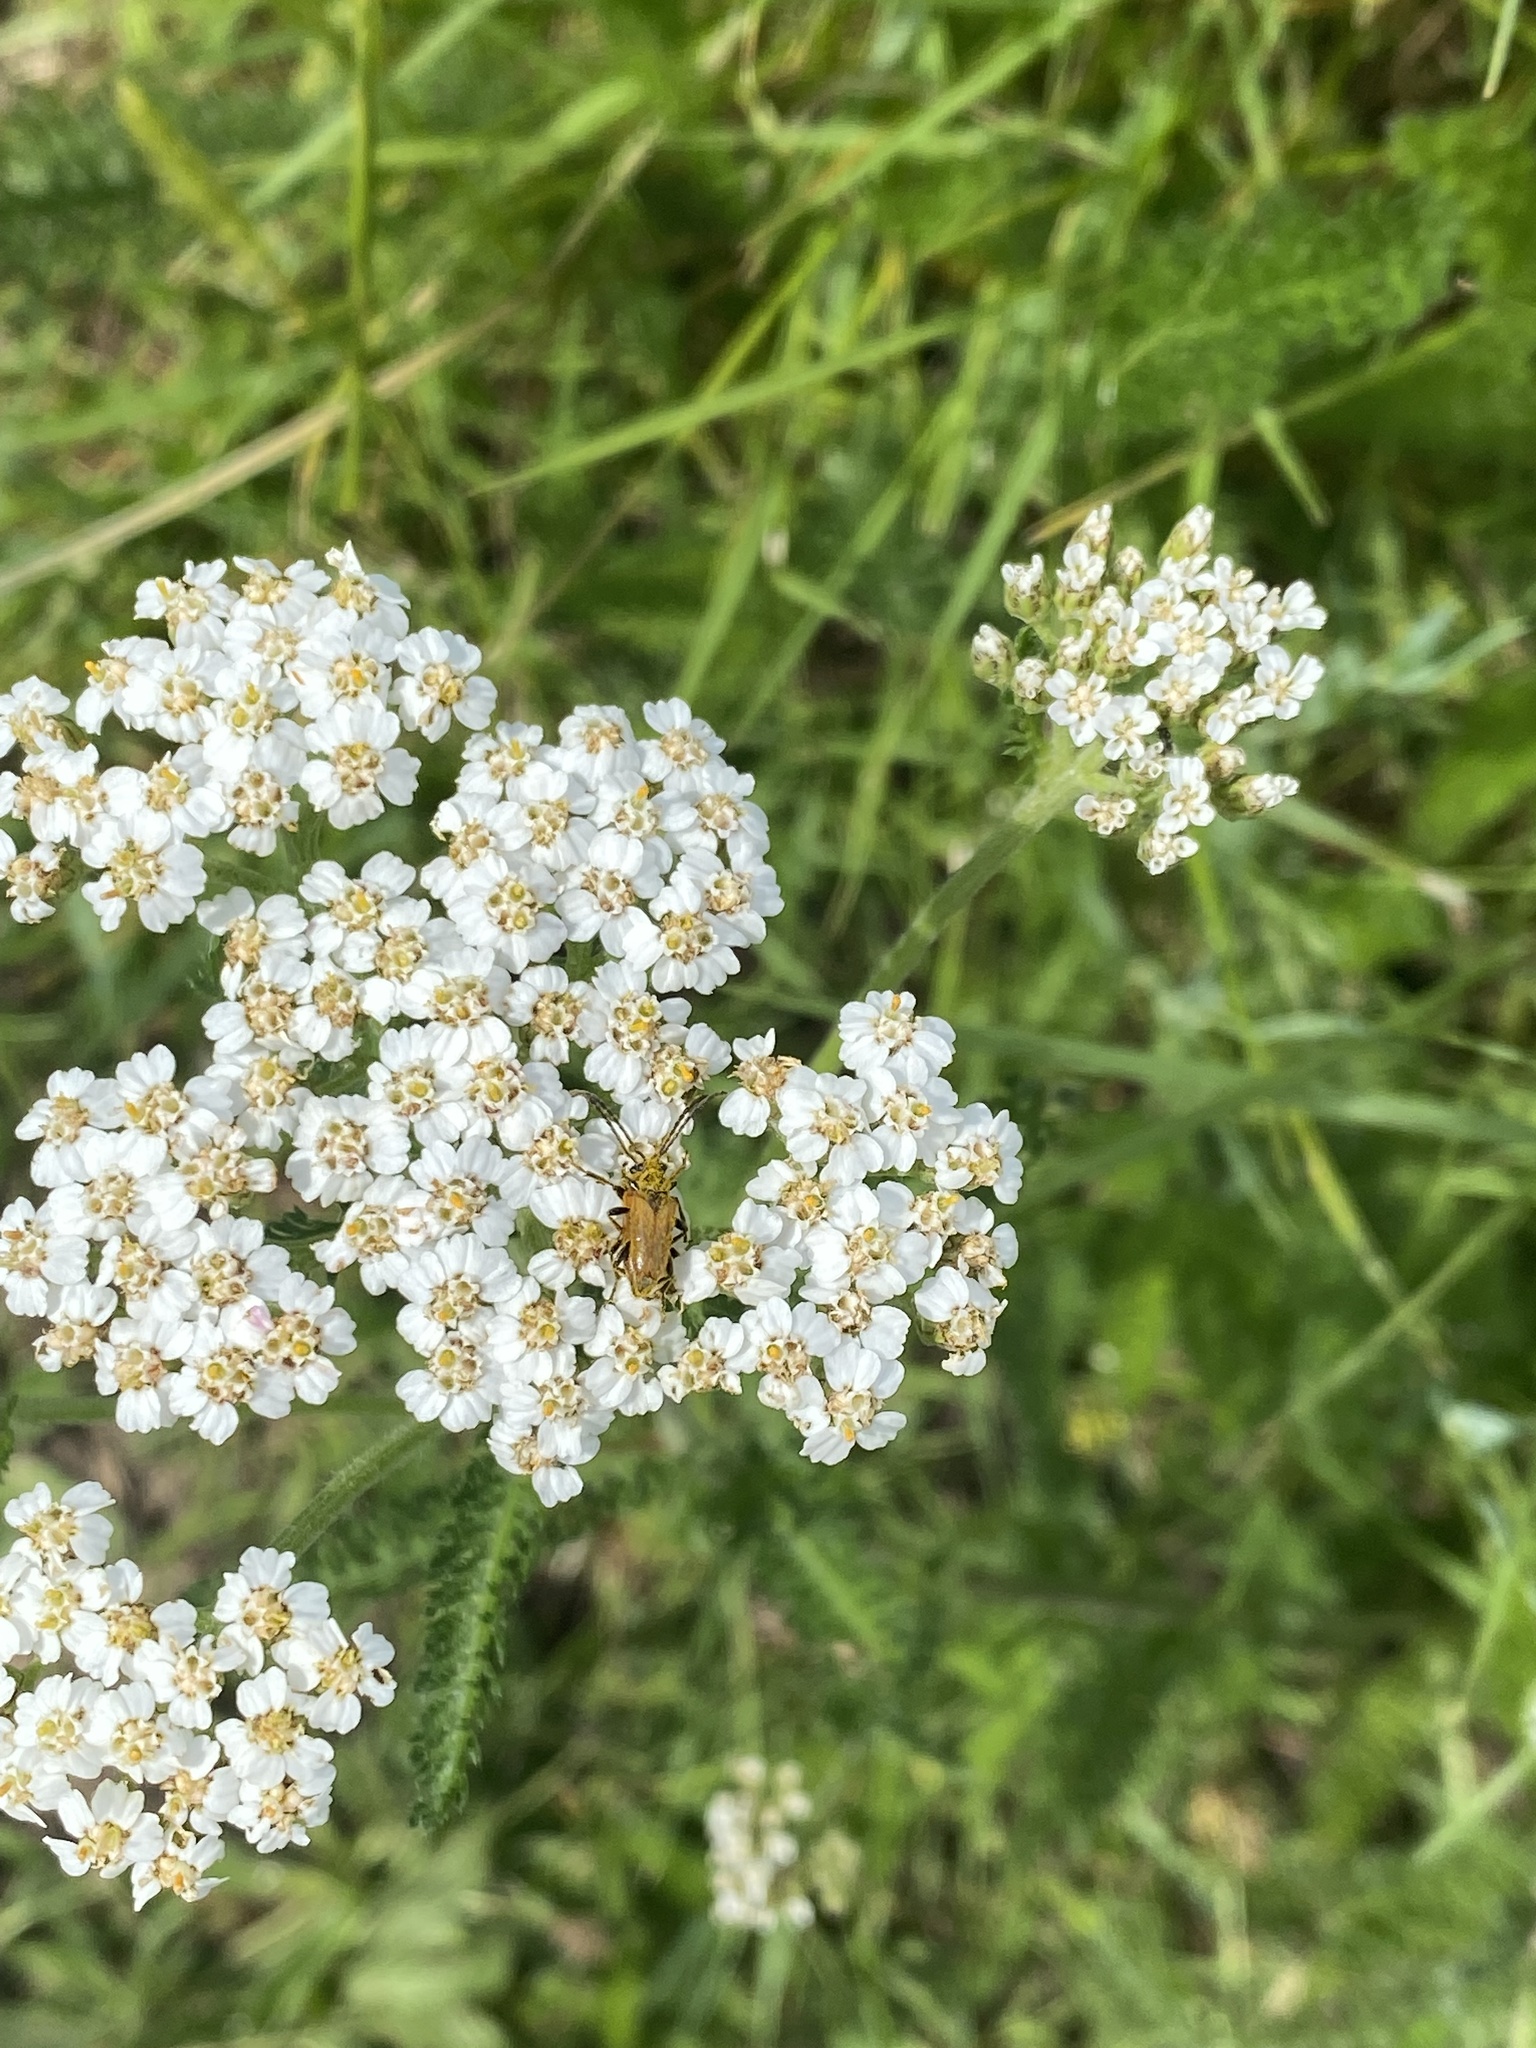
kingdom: Animalia
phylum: Arthropoda
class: Insecta
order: Coleoptera
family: Cerambycidae
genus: Pseudovadonia
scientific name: Pseudovadonia livida
